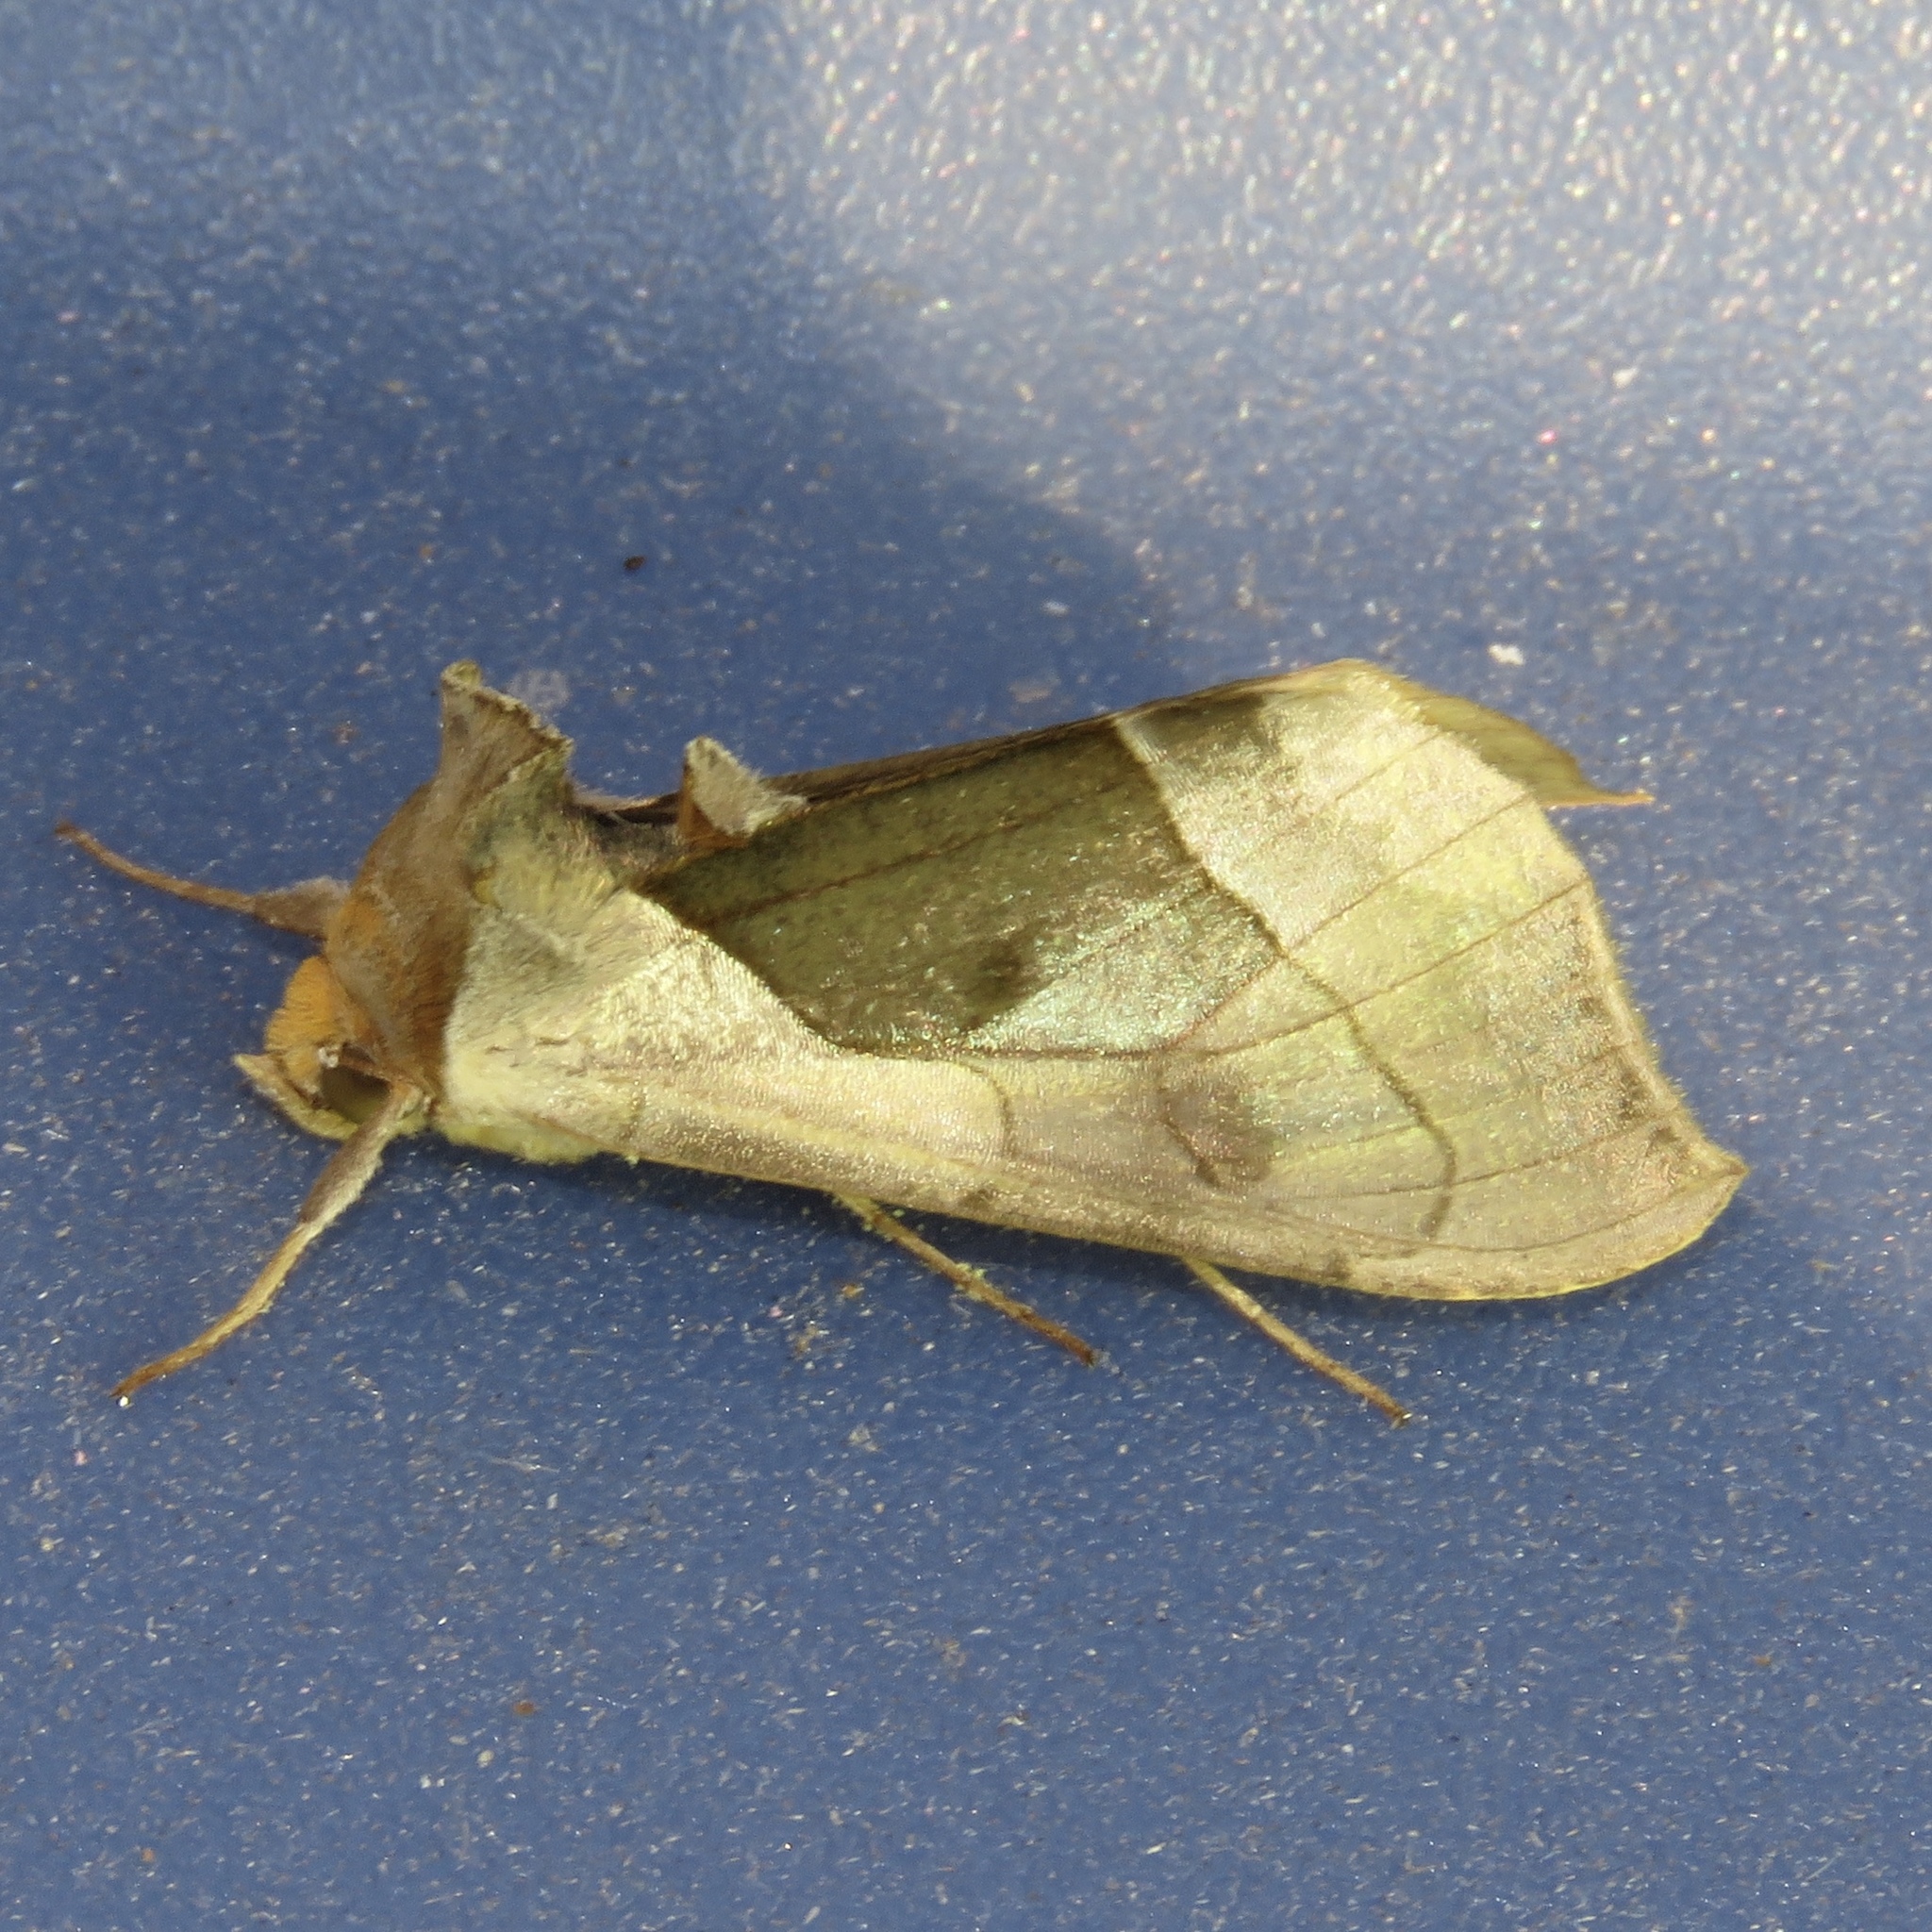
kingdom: Animalia
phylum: Arthropoda
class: Insecta
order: Lepidoptera
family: Noctuidae
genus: Diachrysia
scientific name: Diachrysia balluca
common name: Green-patched looper moth
